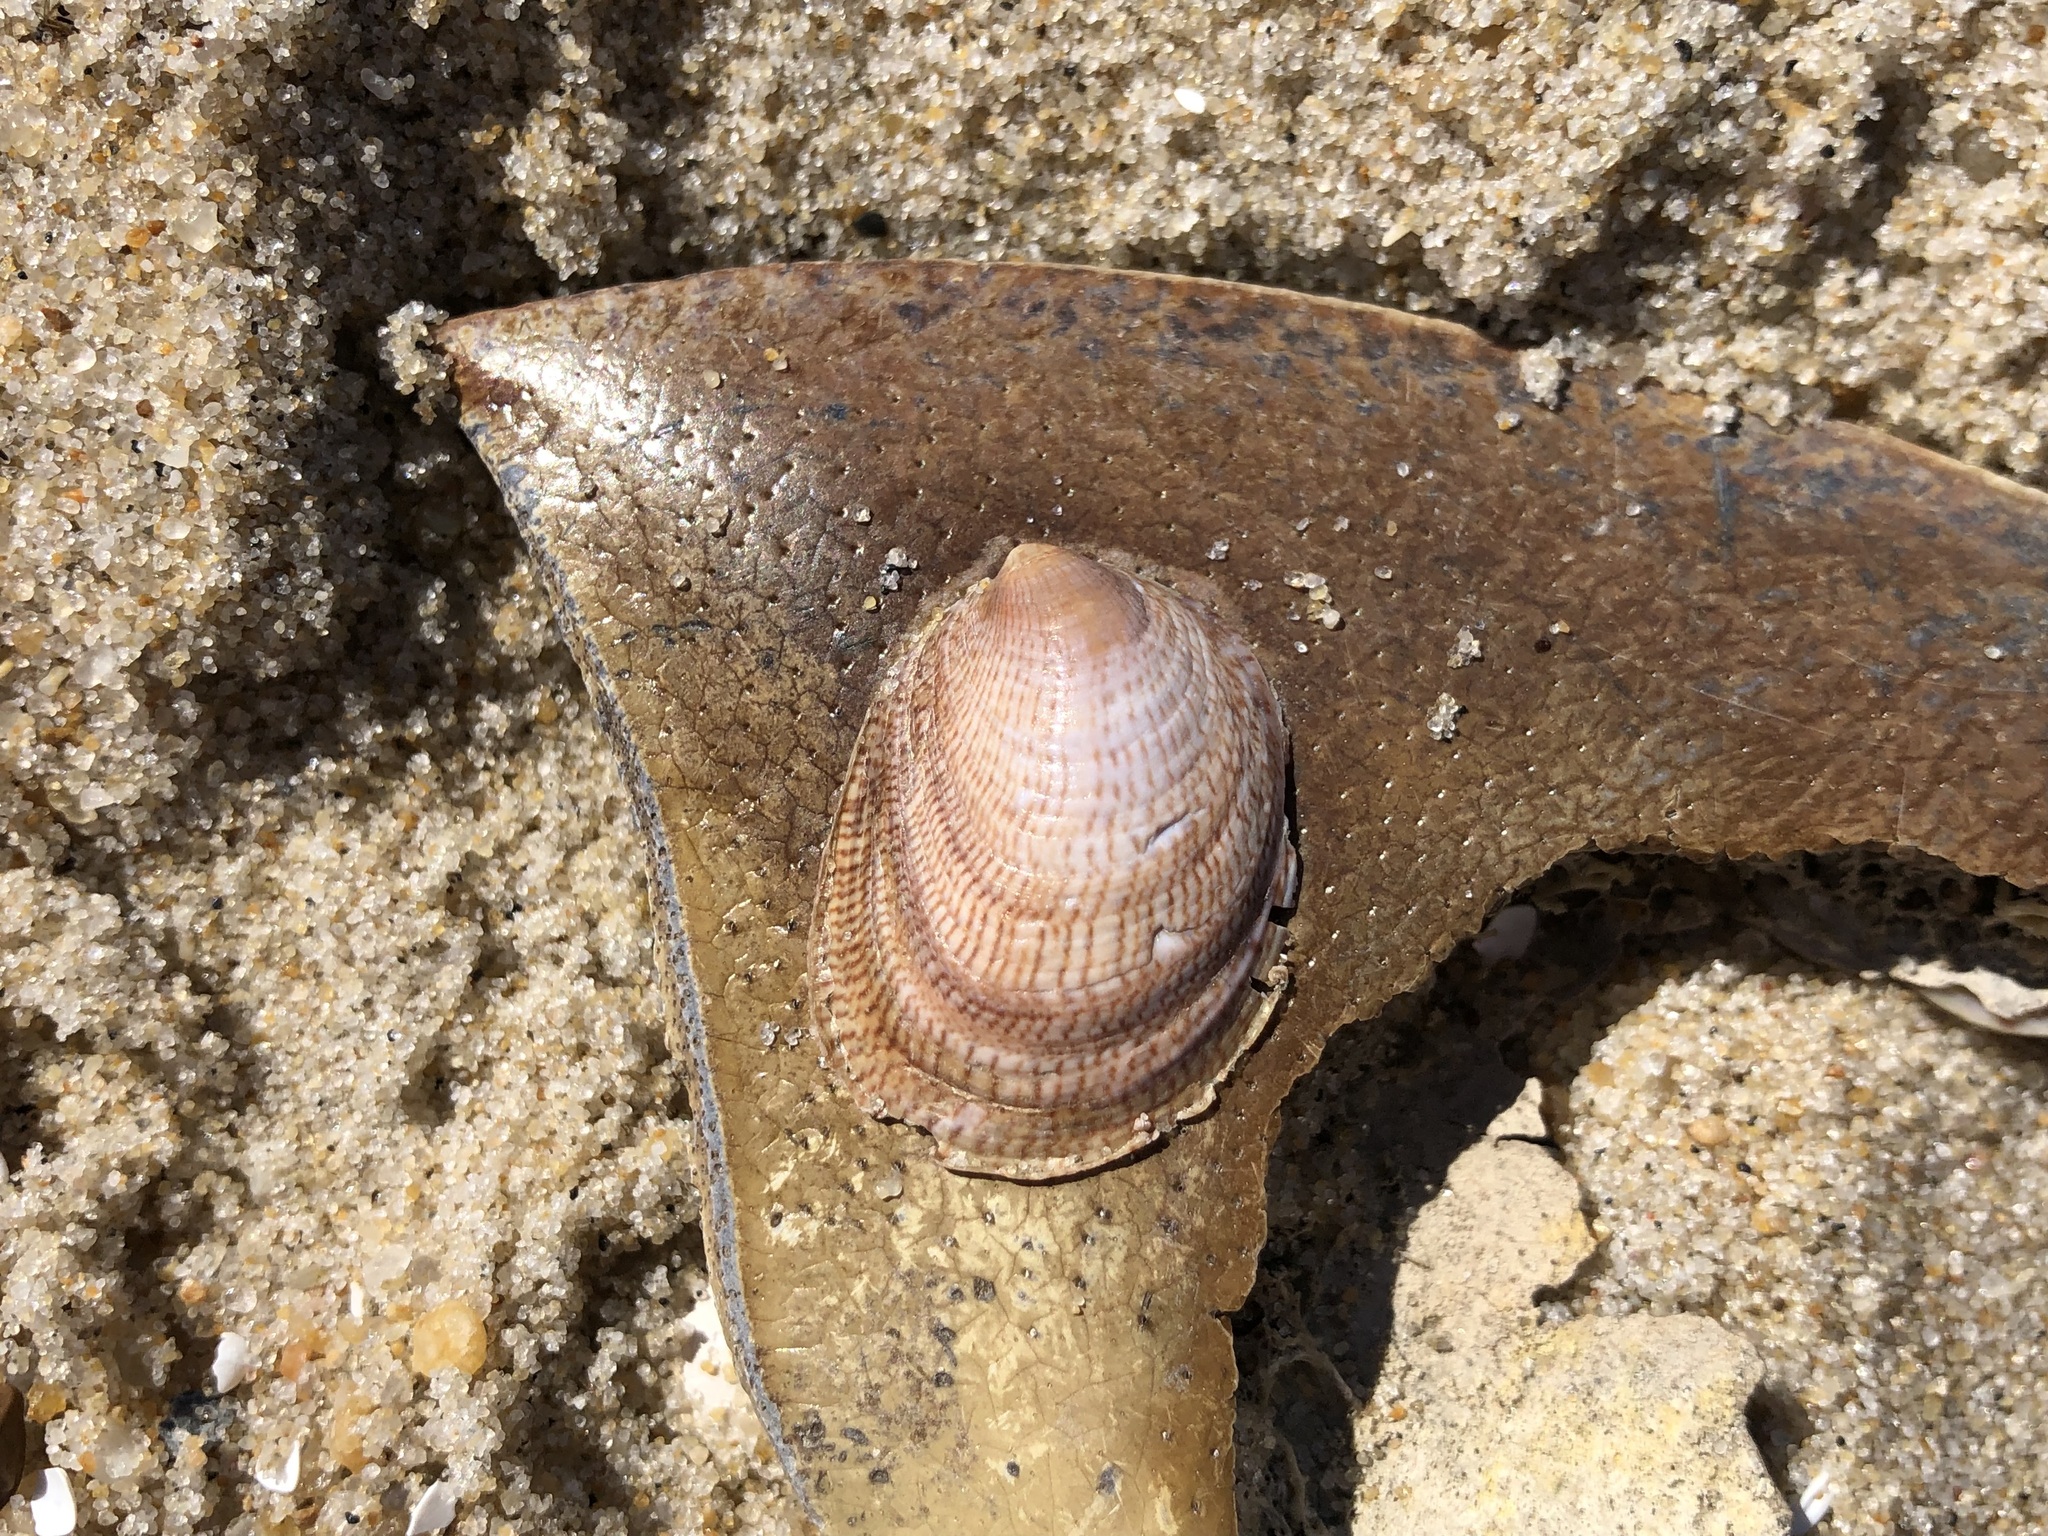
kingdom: Animalia
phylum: Mollusca
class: Gastropoda
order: Littorinimorpha
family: Calyptraeidae
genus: Crepidula
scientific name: Crepidula fornicata
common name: Slipper limpet
